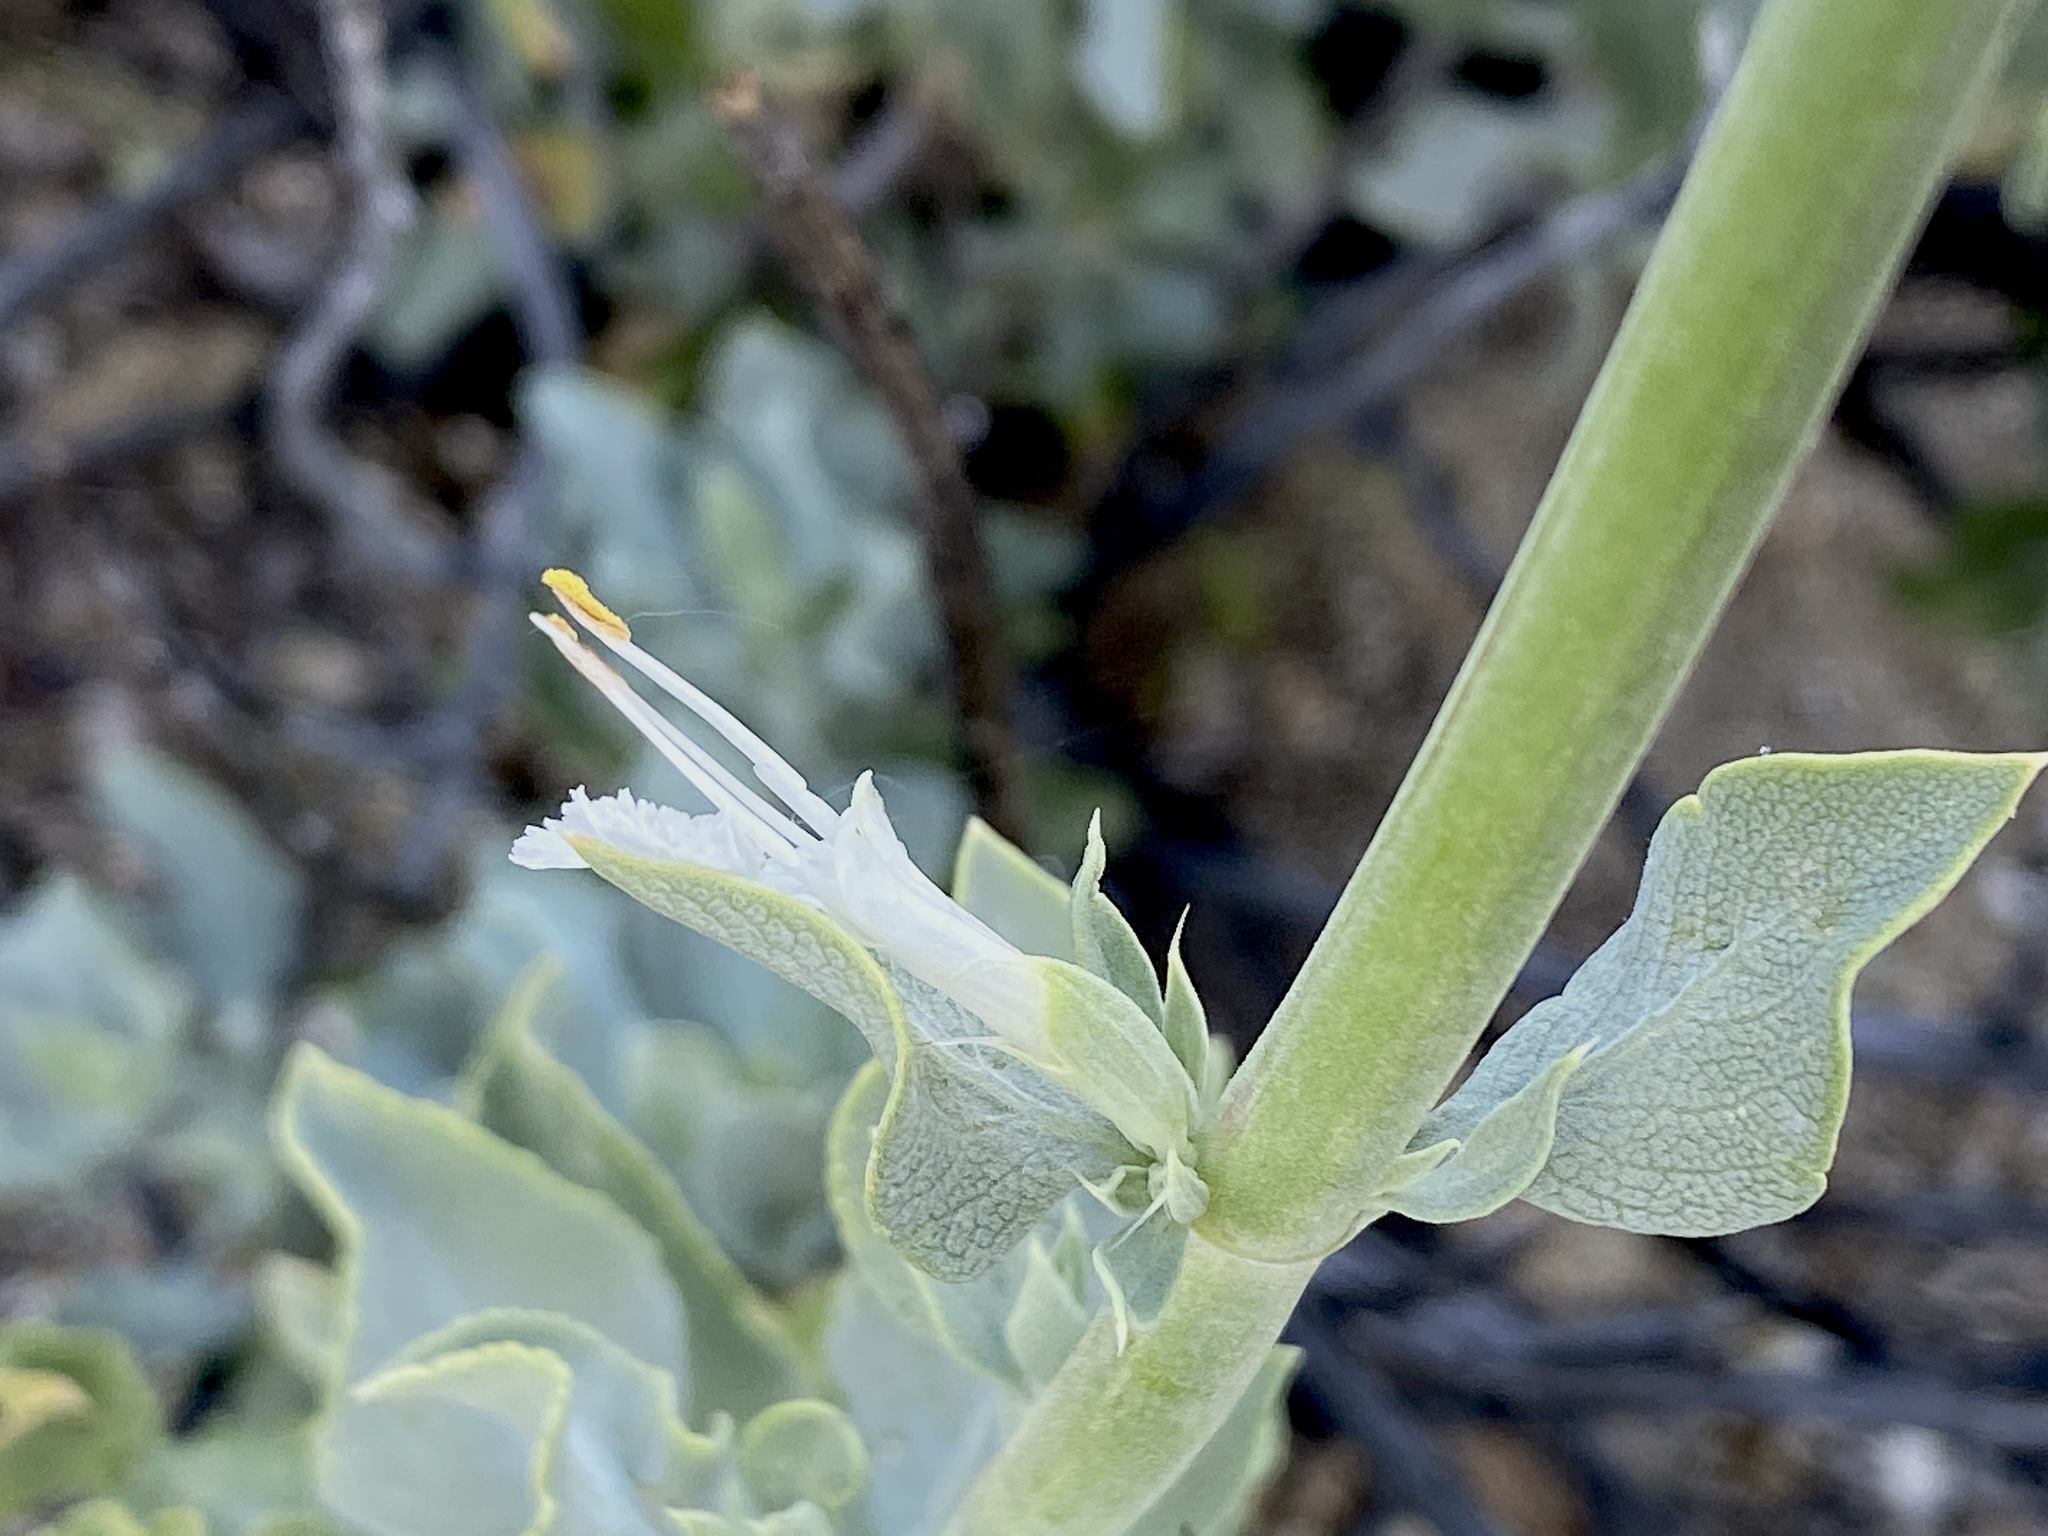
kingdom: Plantae
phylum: Tracheophyta
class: Magnoliopsida
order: Lamiales
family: Lamiaceae
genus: Salvia
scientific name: Salvia vaseyi
